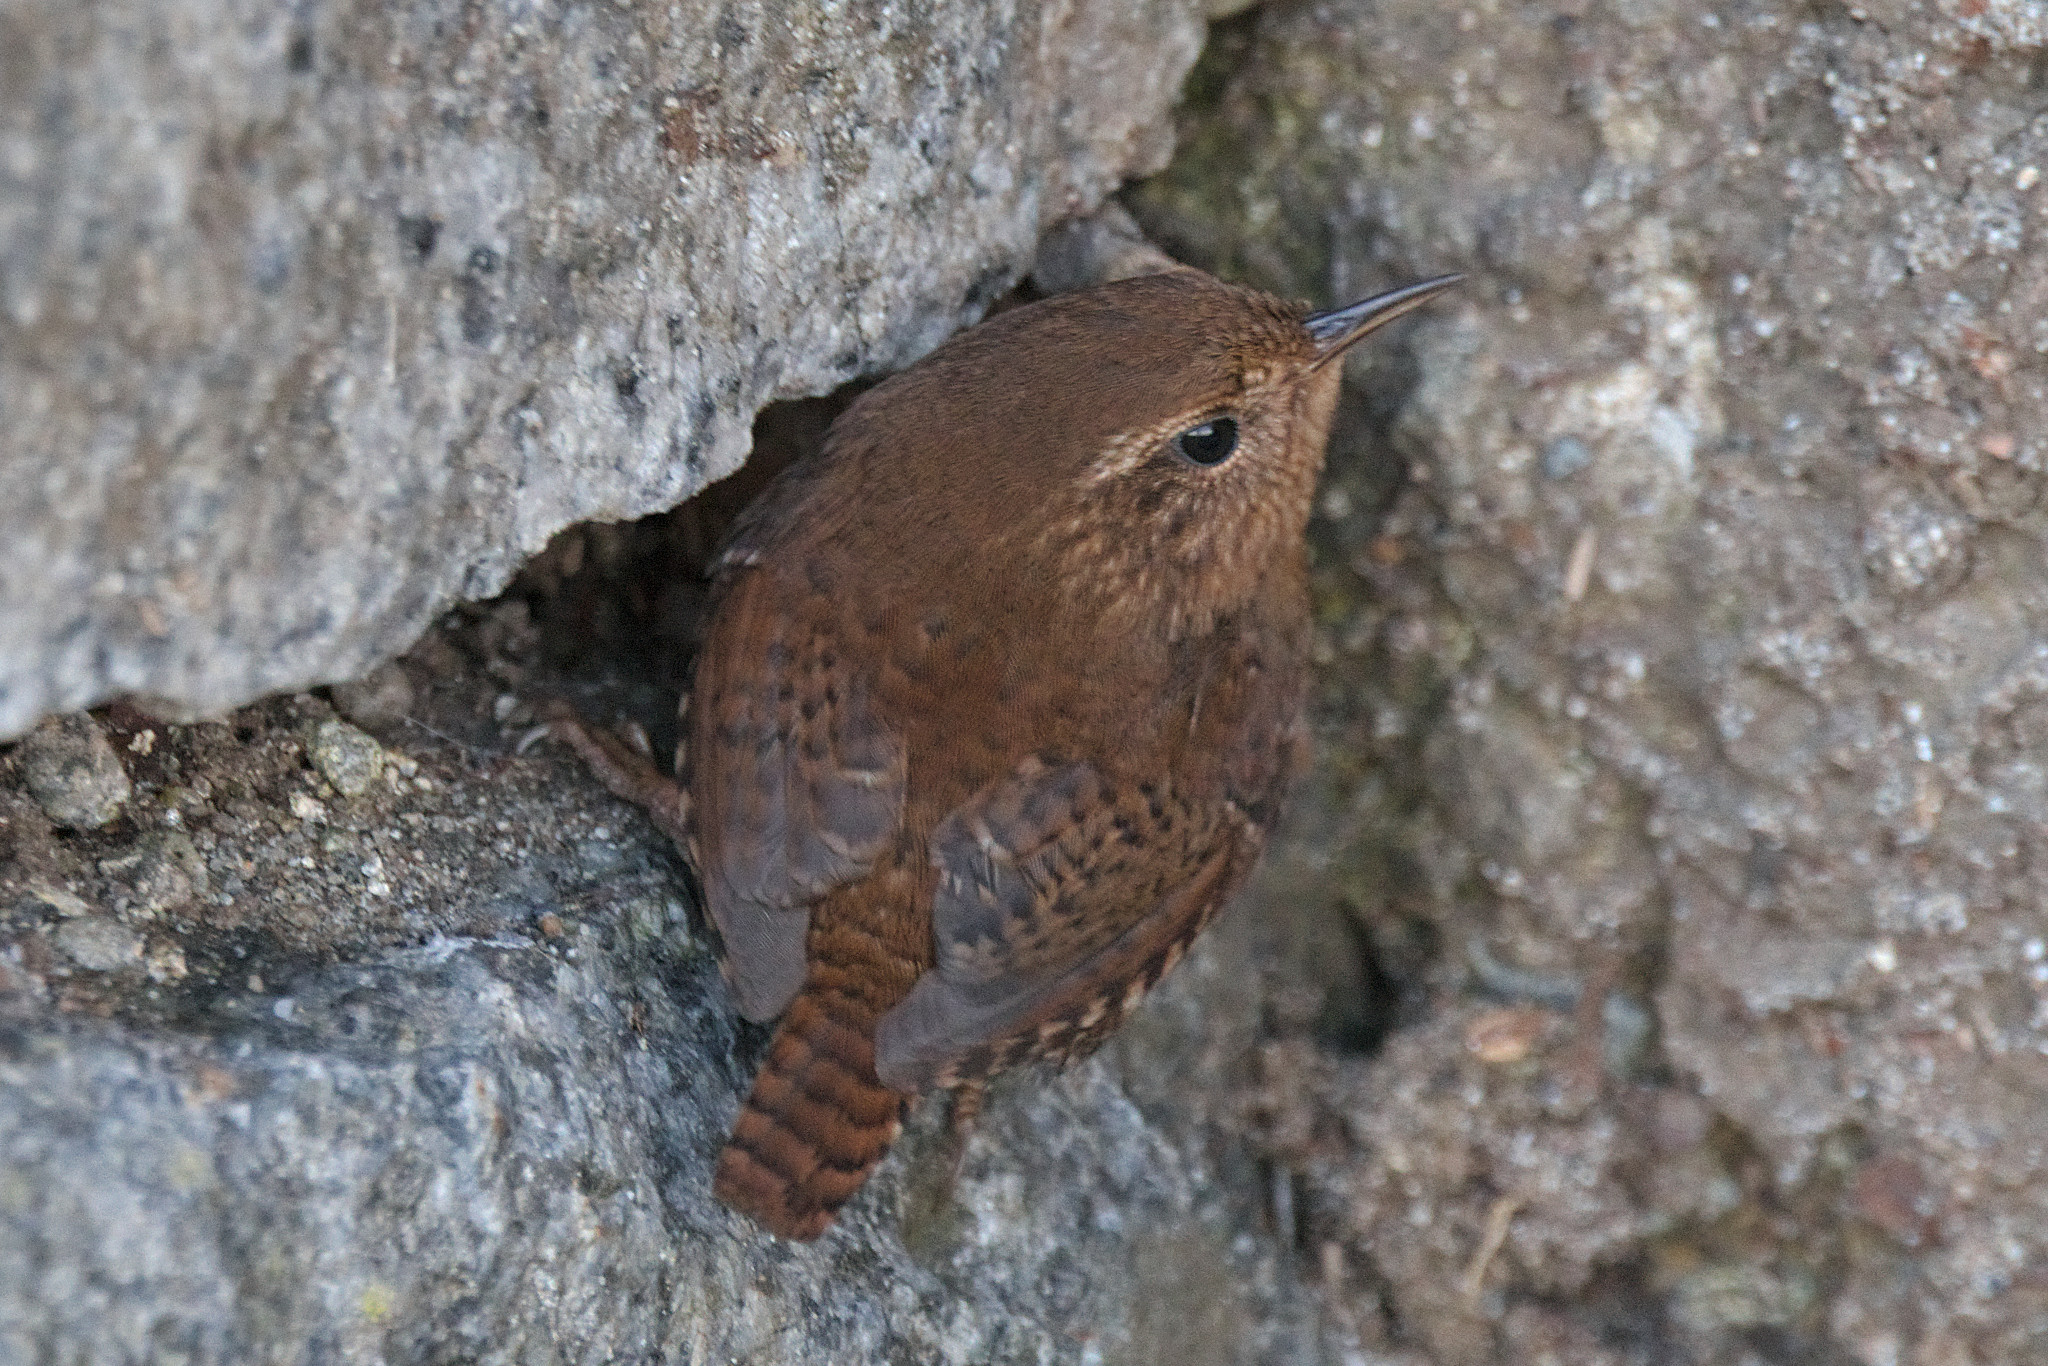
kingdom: Animalia
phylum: Chordata
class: Aves
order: Passeriformes
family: Troglodytidae
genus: Troglodytes
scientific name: Troglodytes pacificus
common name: Pacific wren
